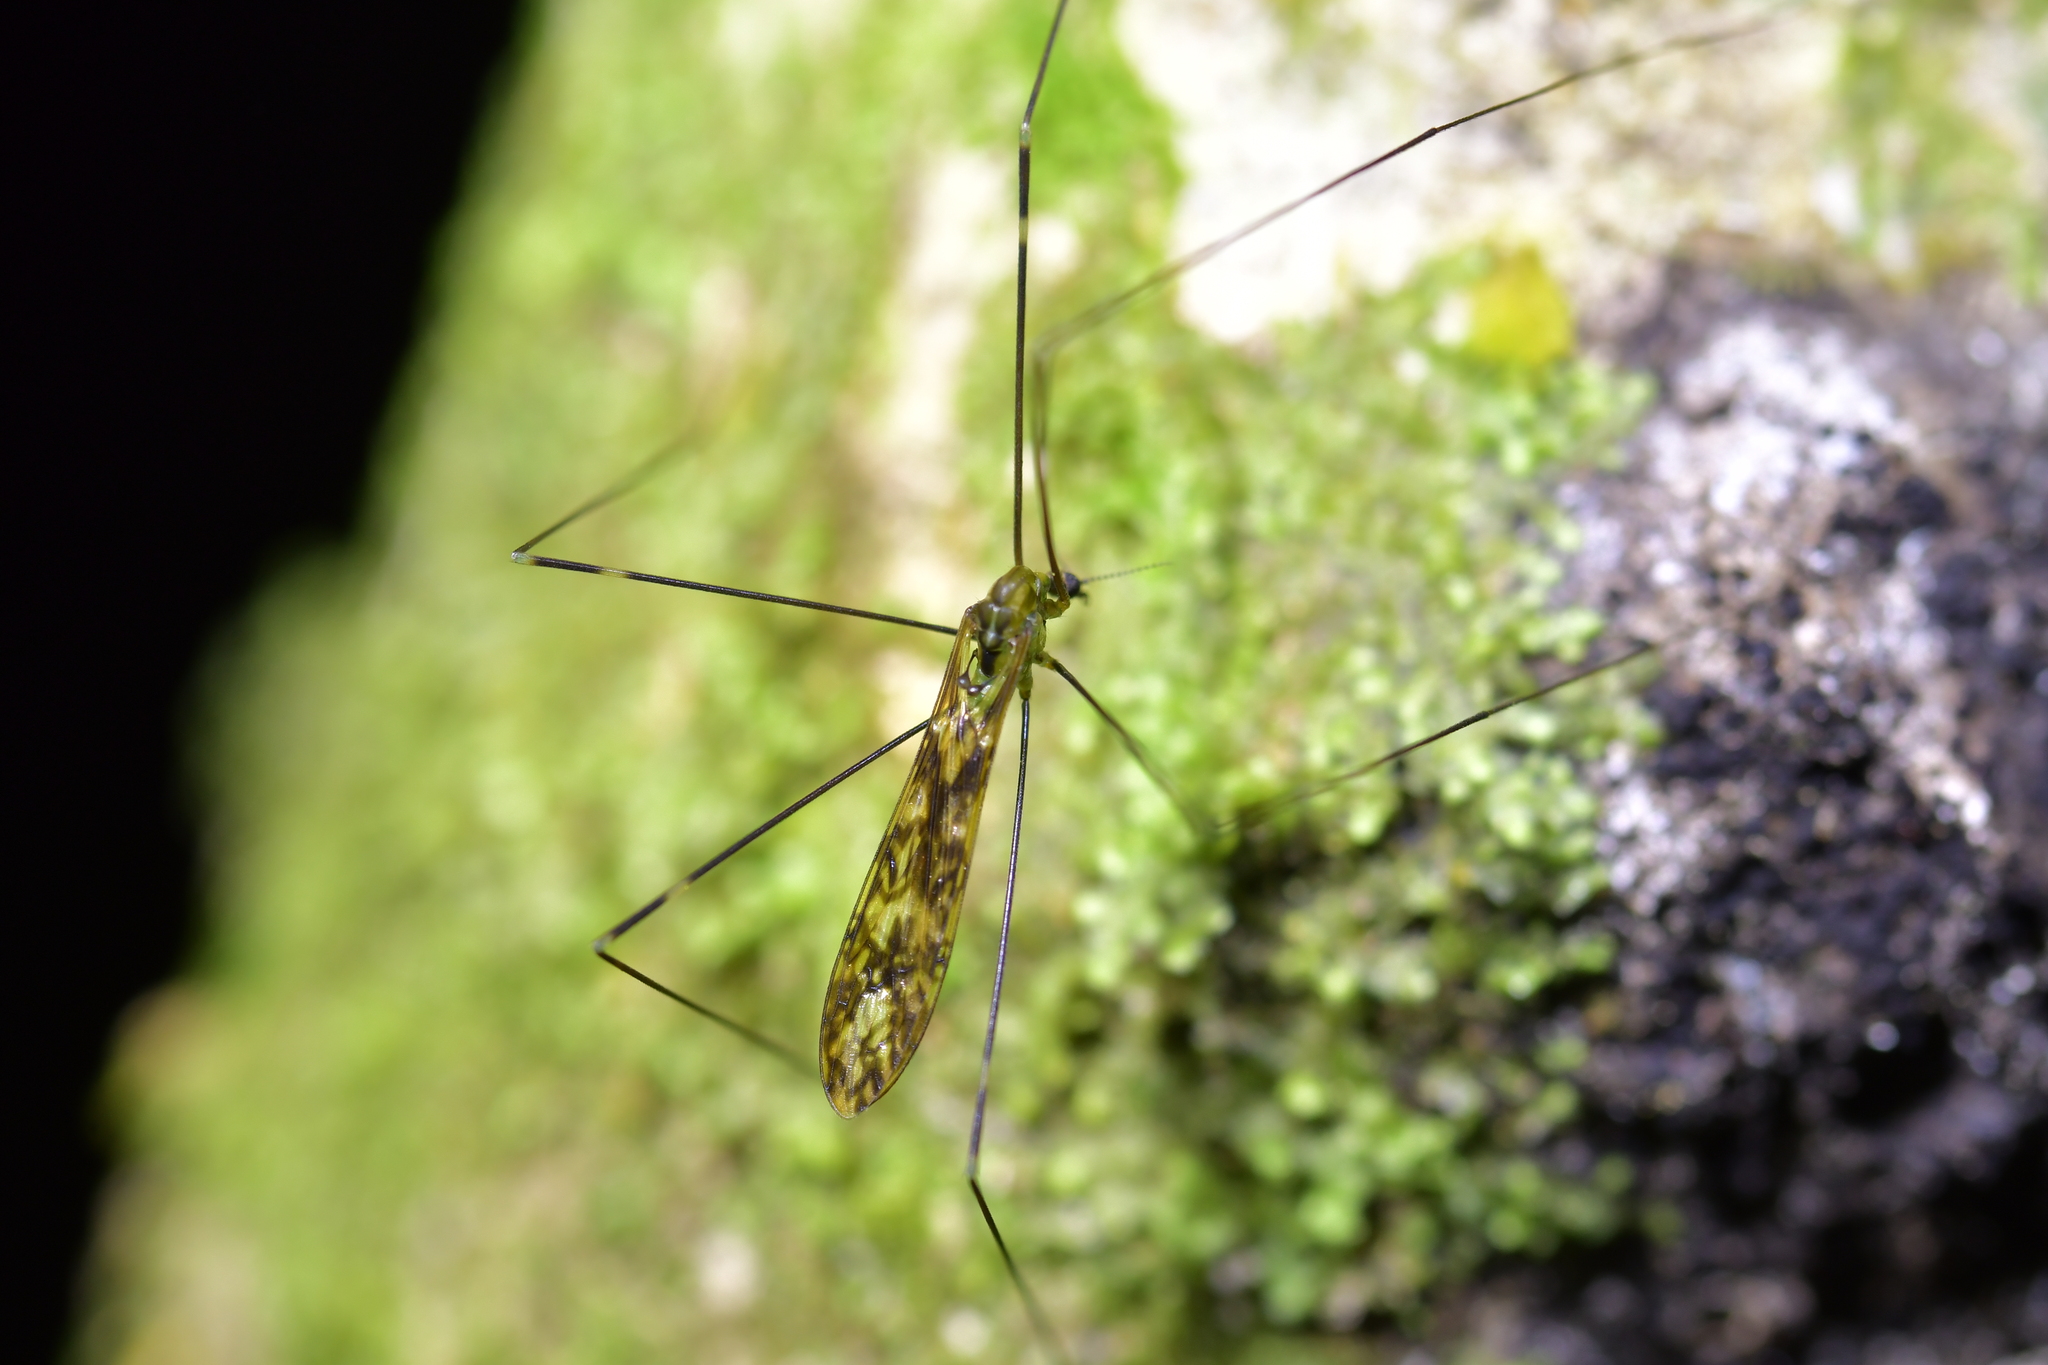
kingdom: Animalia
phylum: Arthropoda
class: Insecta
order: Diptera
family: Limoniidae
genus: Discobola
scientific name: Discobola dohrni
